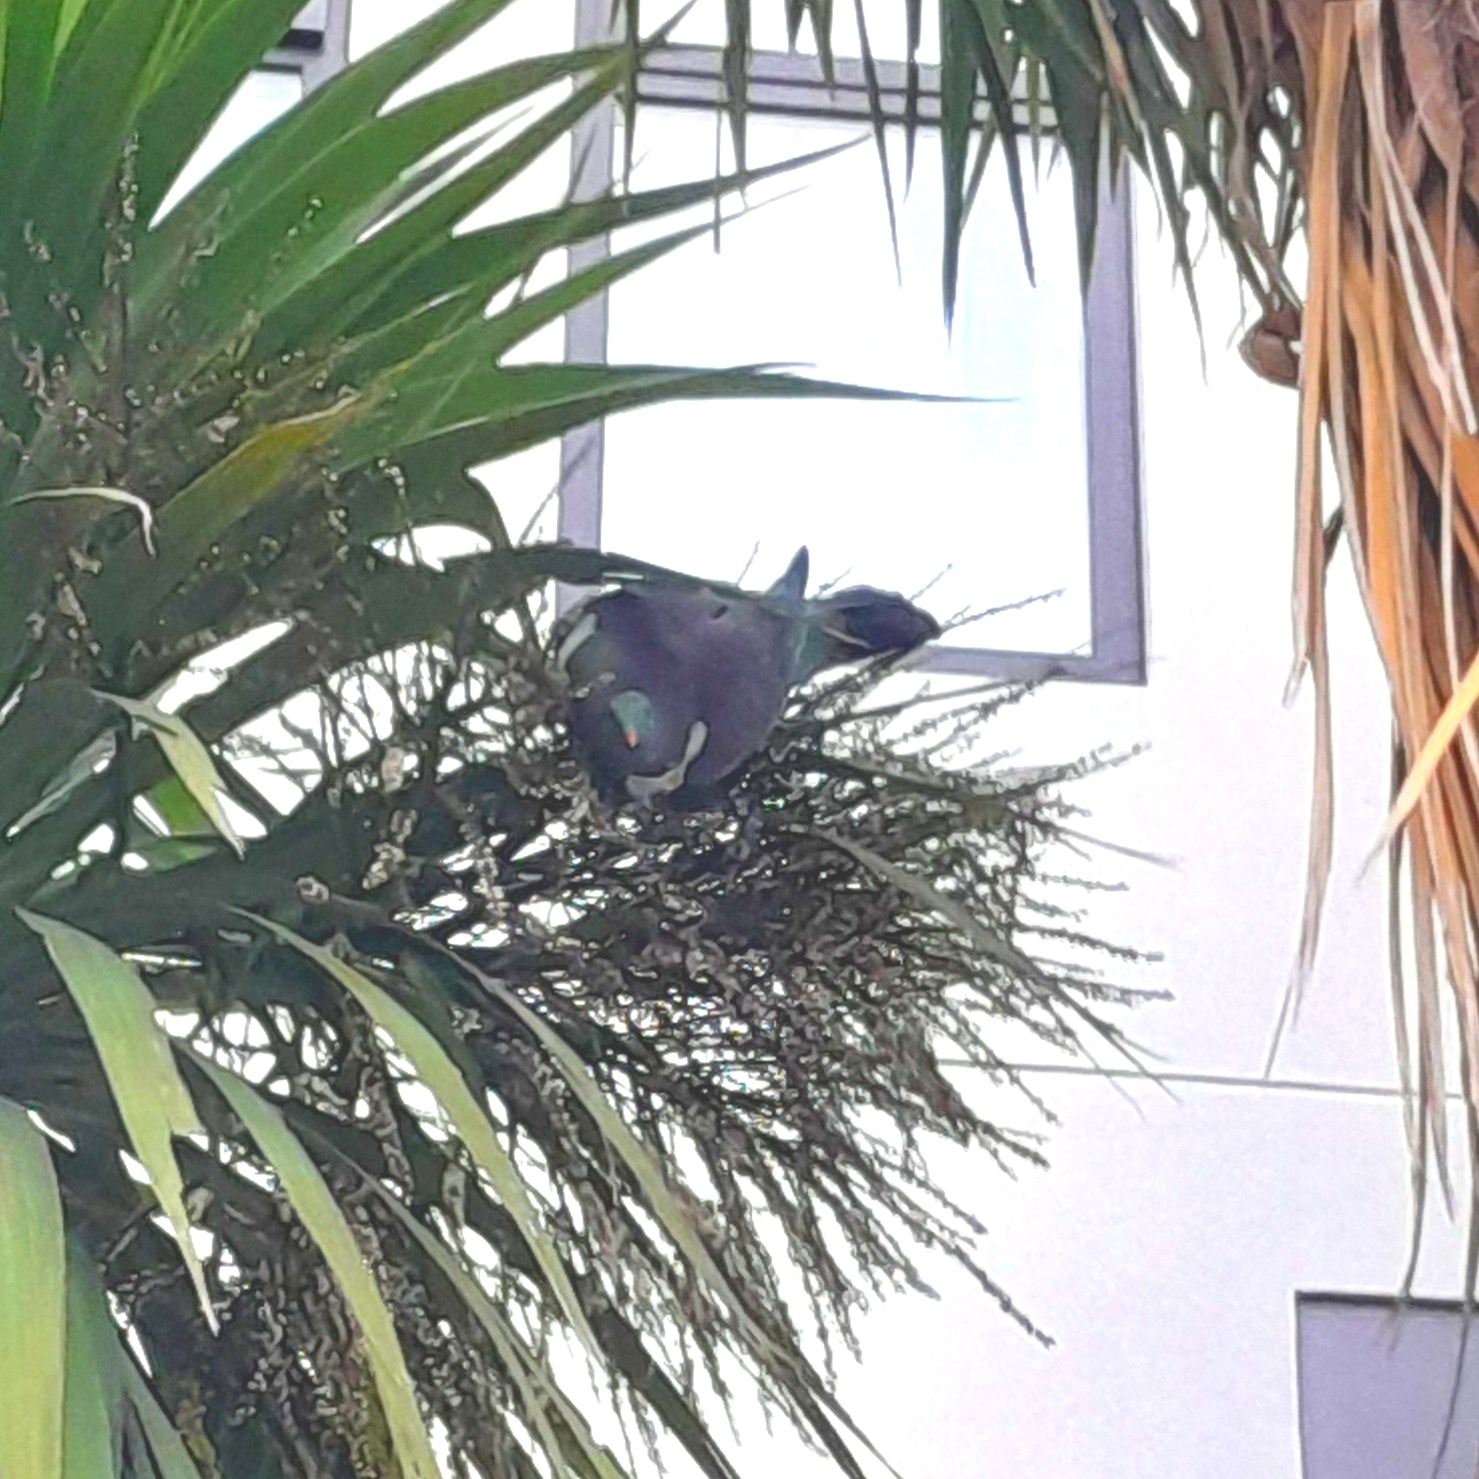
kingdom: Animalia
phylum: Chordata
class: Aves
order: Columbiformes
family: Columbidae
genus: Hemiphaga
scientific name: Hemiphaga novaeseelandiae
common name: New zealand pigeon
